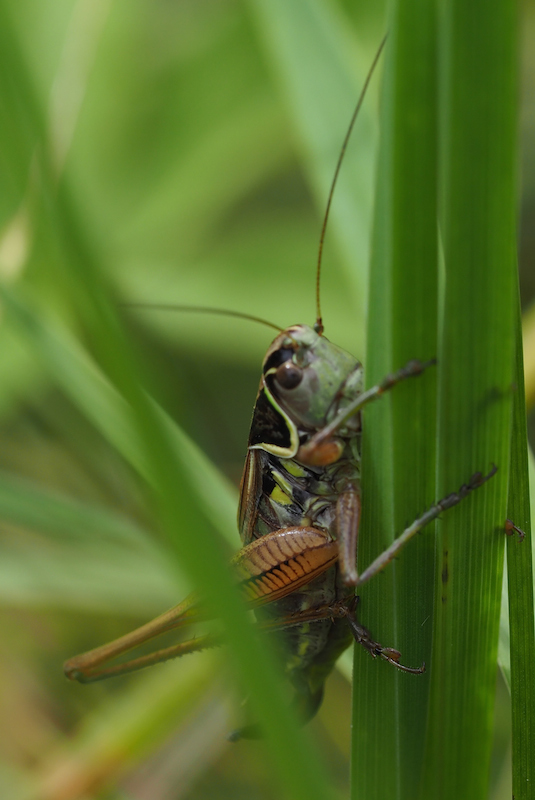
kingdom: Animalia
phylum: Arthropoda
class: Insecta
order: Orthoptera
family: Tettigoniidae
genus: Roeseliana
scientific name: Roeseliana roeselii
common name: Roesel's bush cricket
